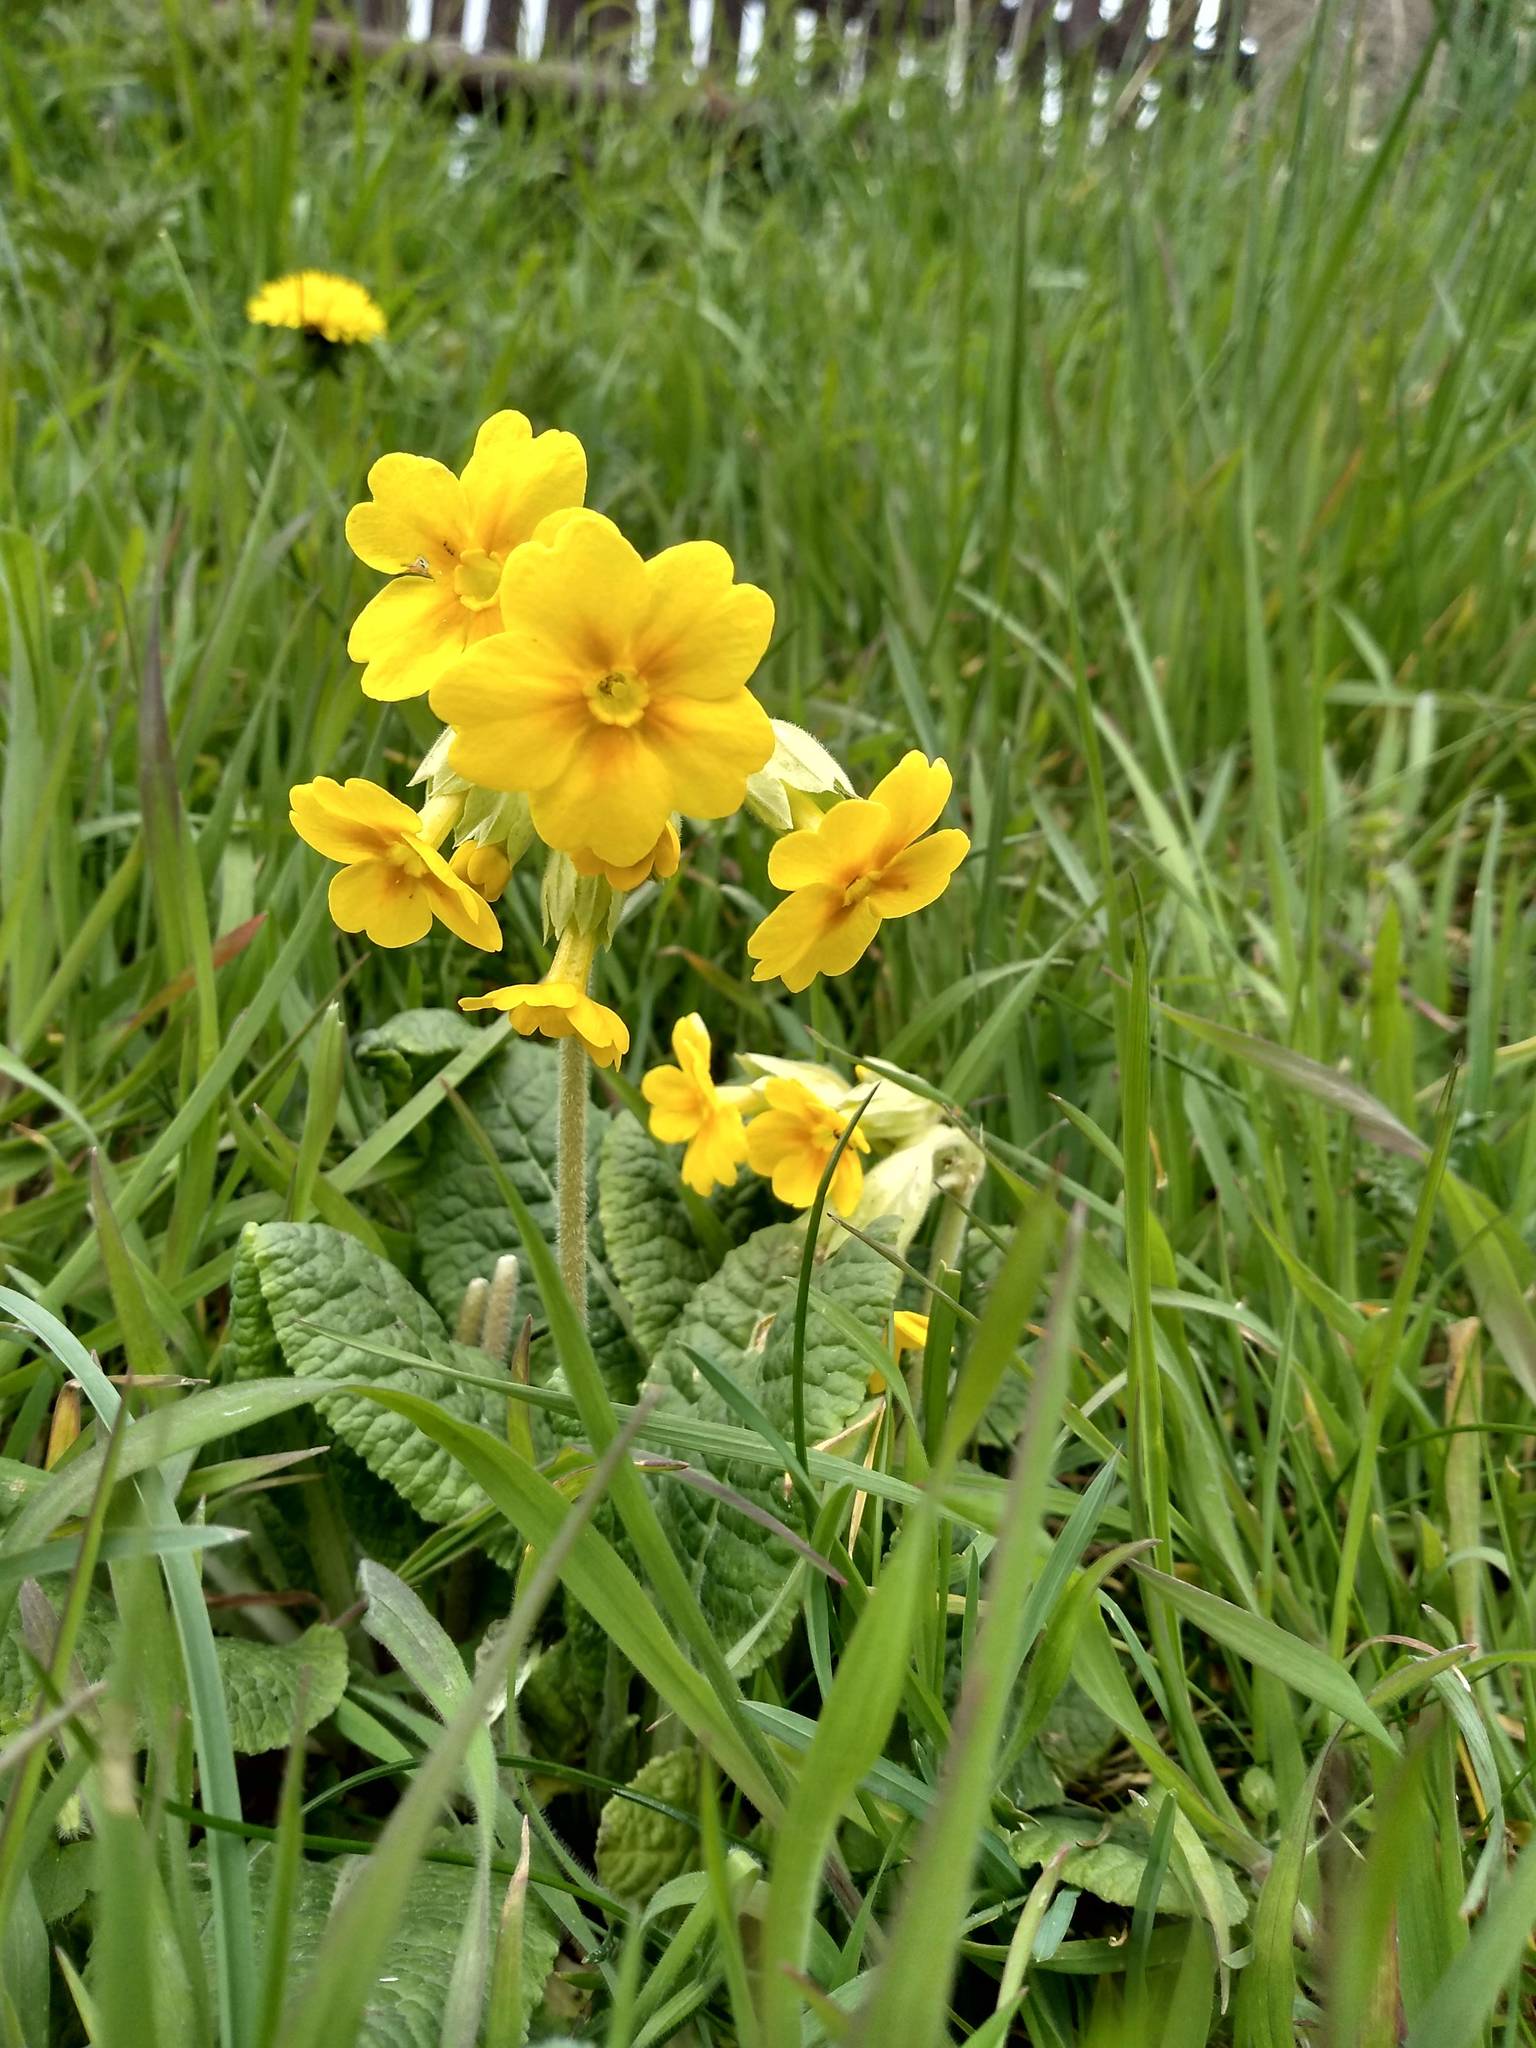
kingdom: Plantae
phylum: Tracheophyta
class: Magnoliopsida
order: Ericales
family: Primulaceae
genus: Primula
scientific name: Primula veris
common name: Cowslip
